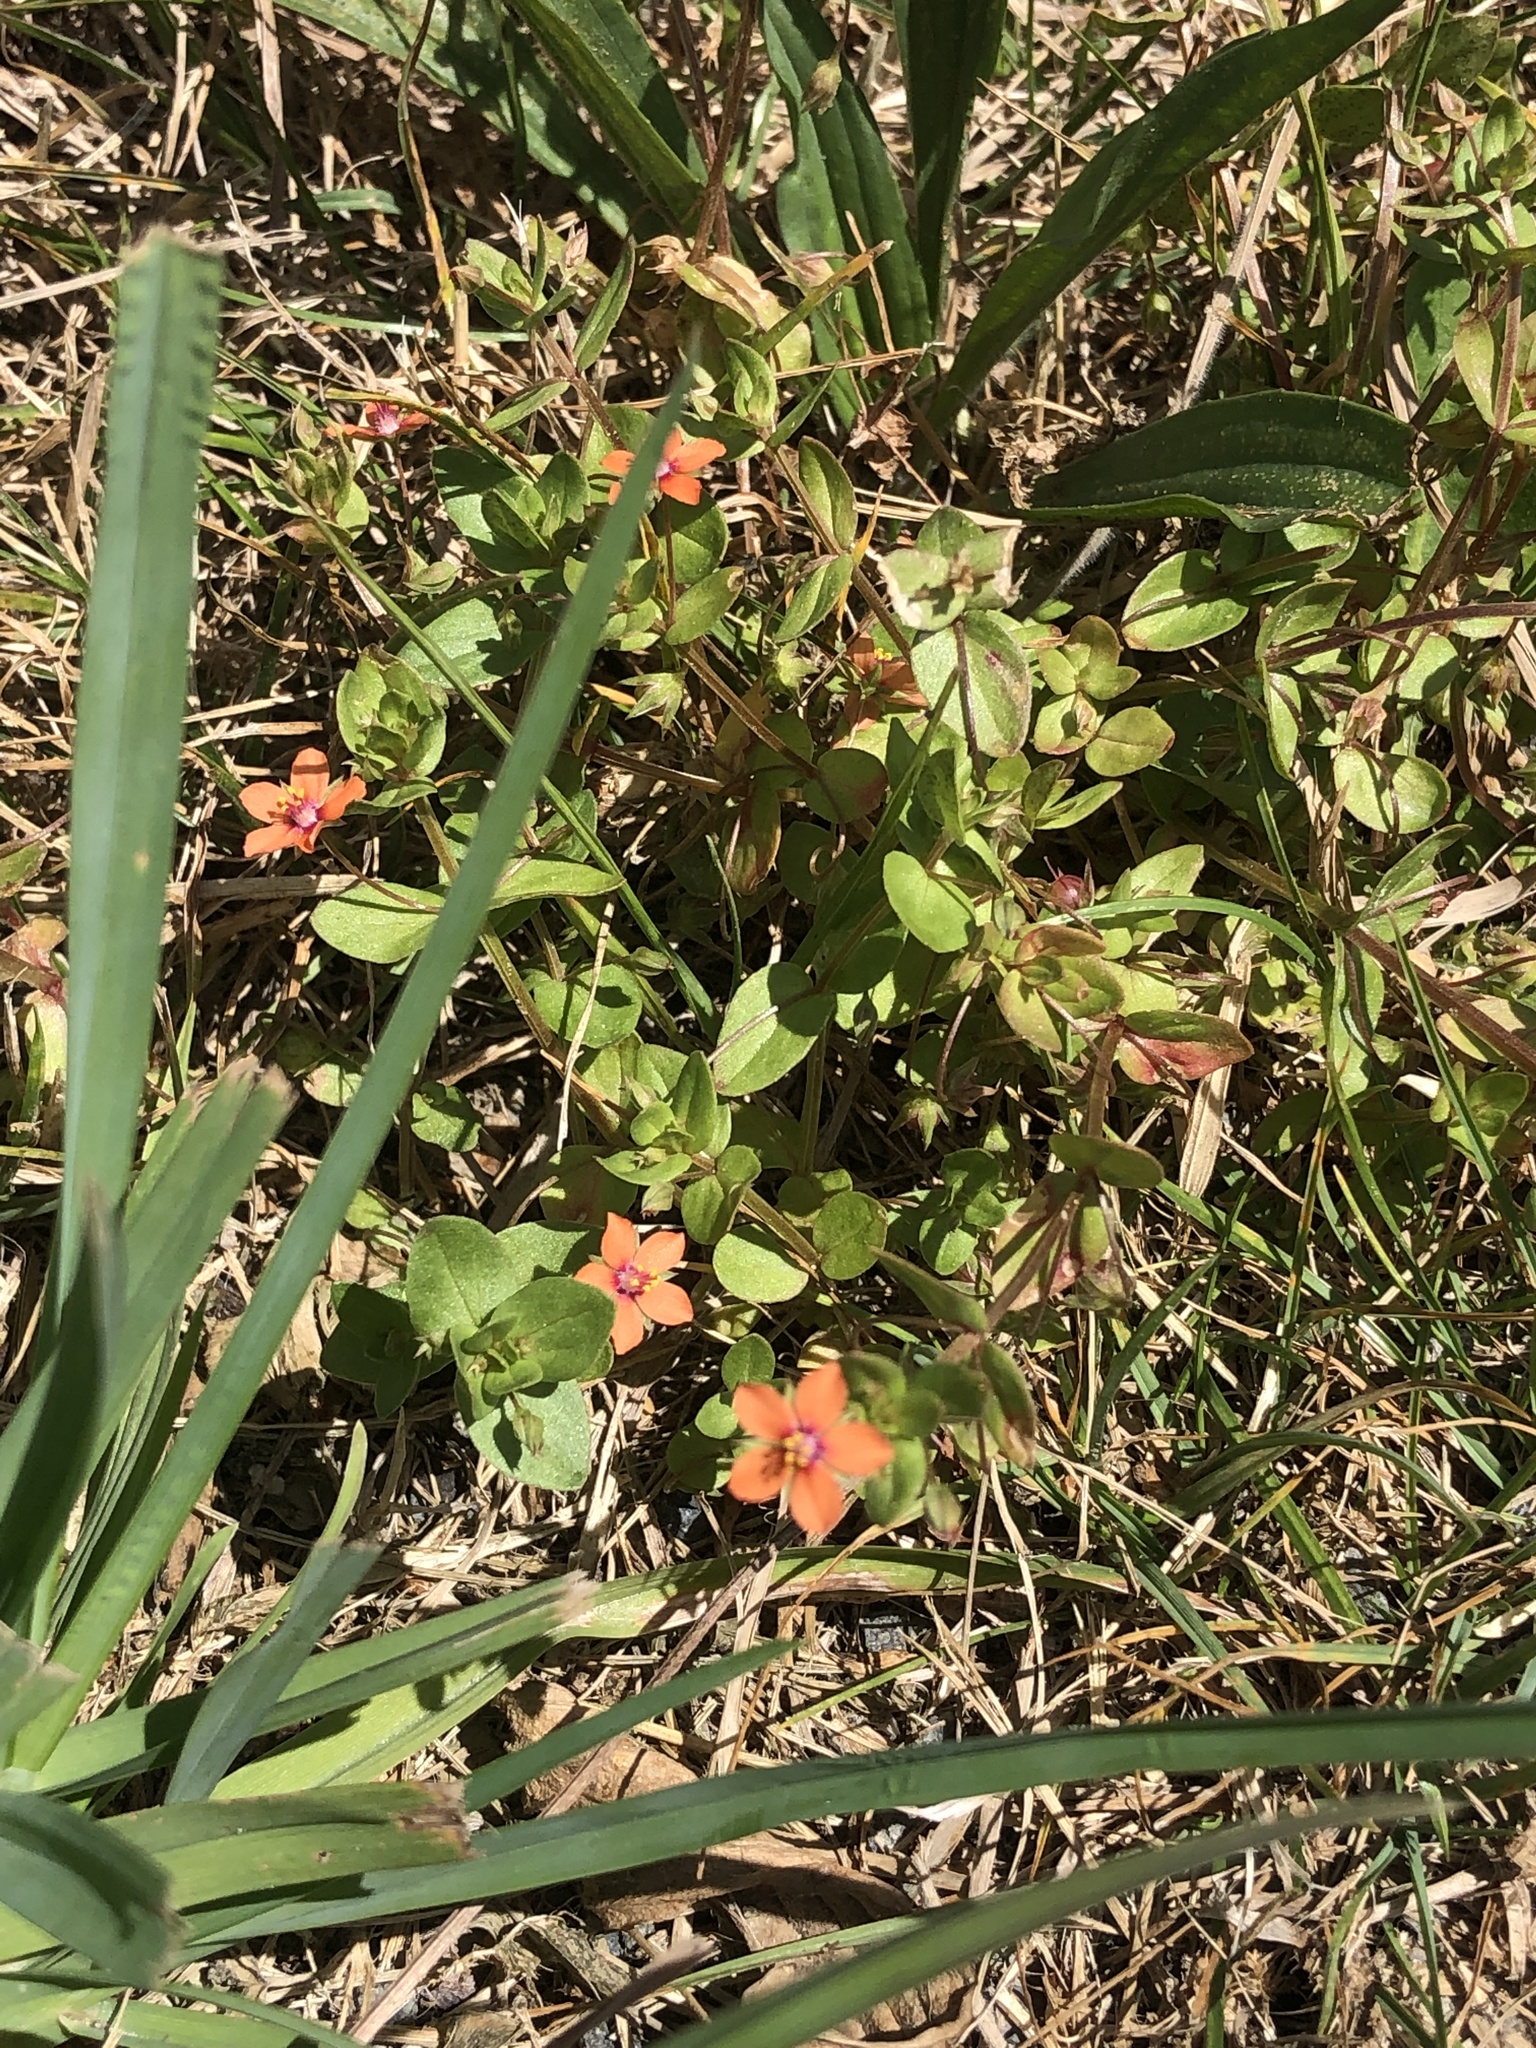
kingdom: Plantae
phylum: Tracheophyta
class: Magnoliopsida
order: Ericales
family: Primulaceae
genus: Lysimachia
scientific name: Lysimachia arvensis
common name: Scarlet pimpernel
